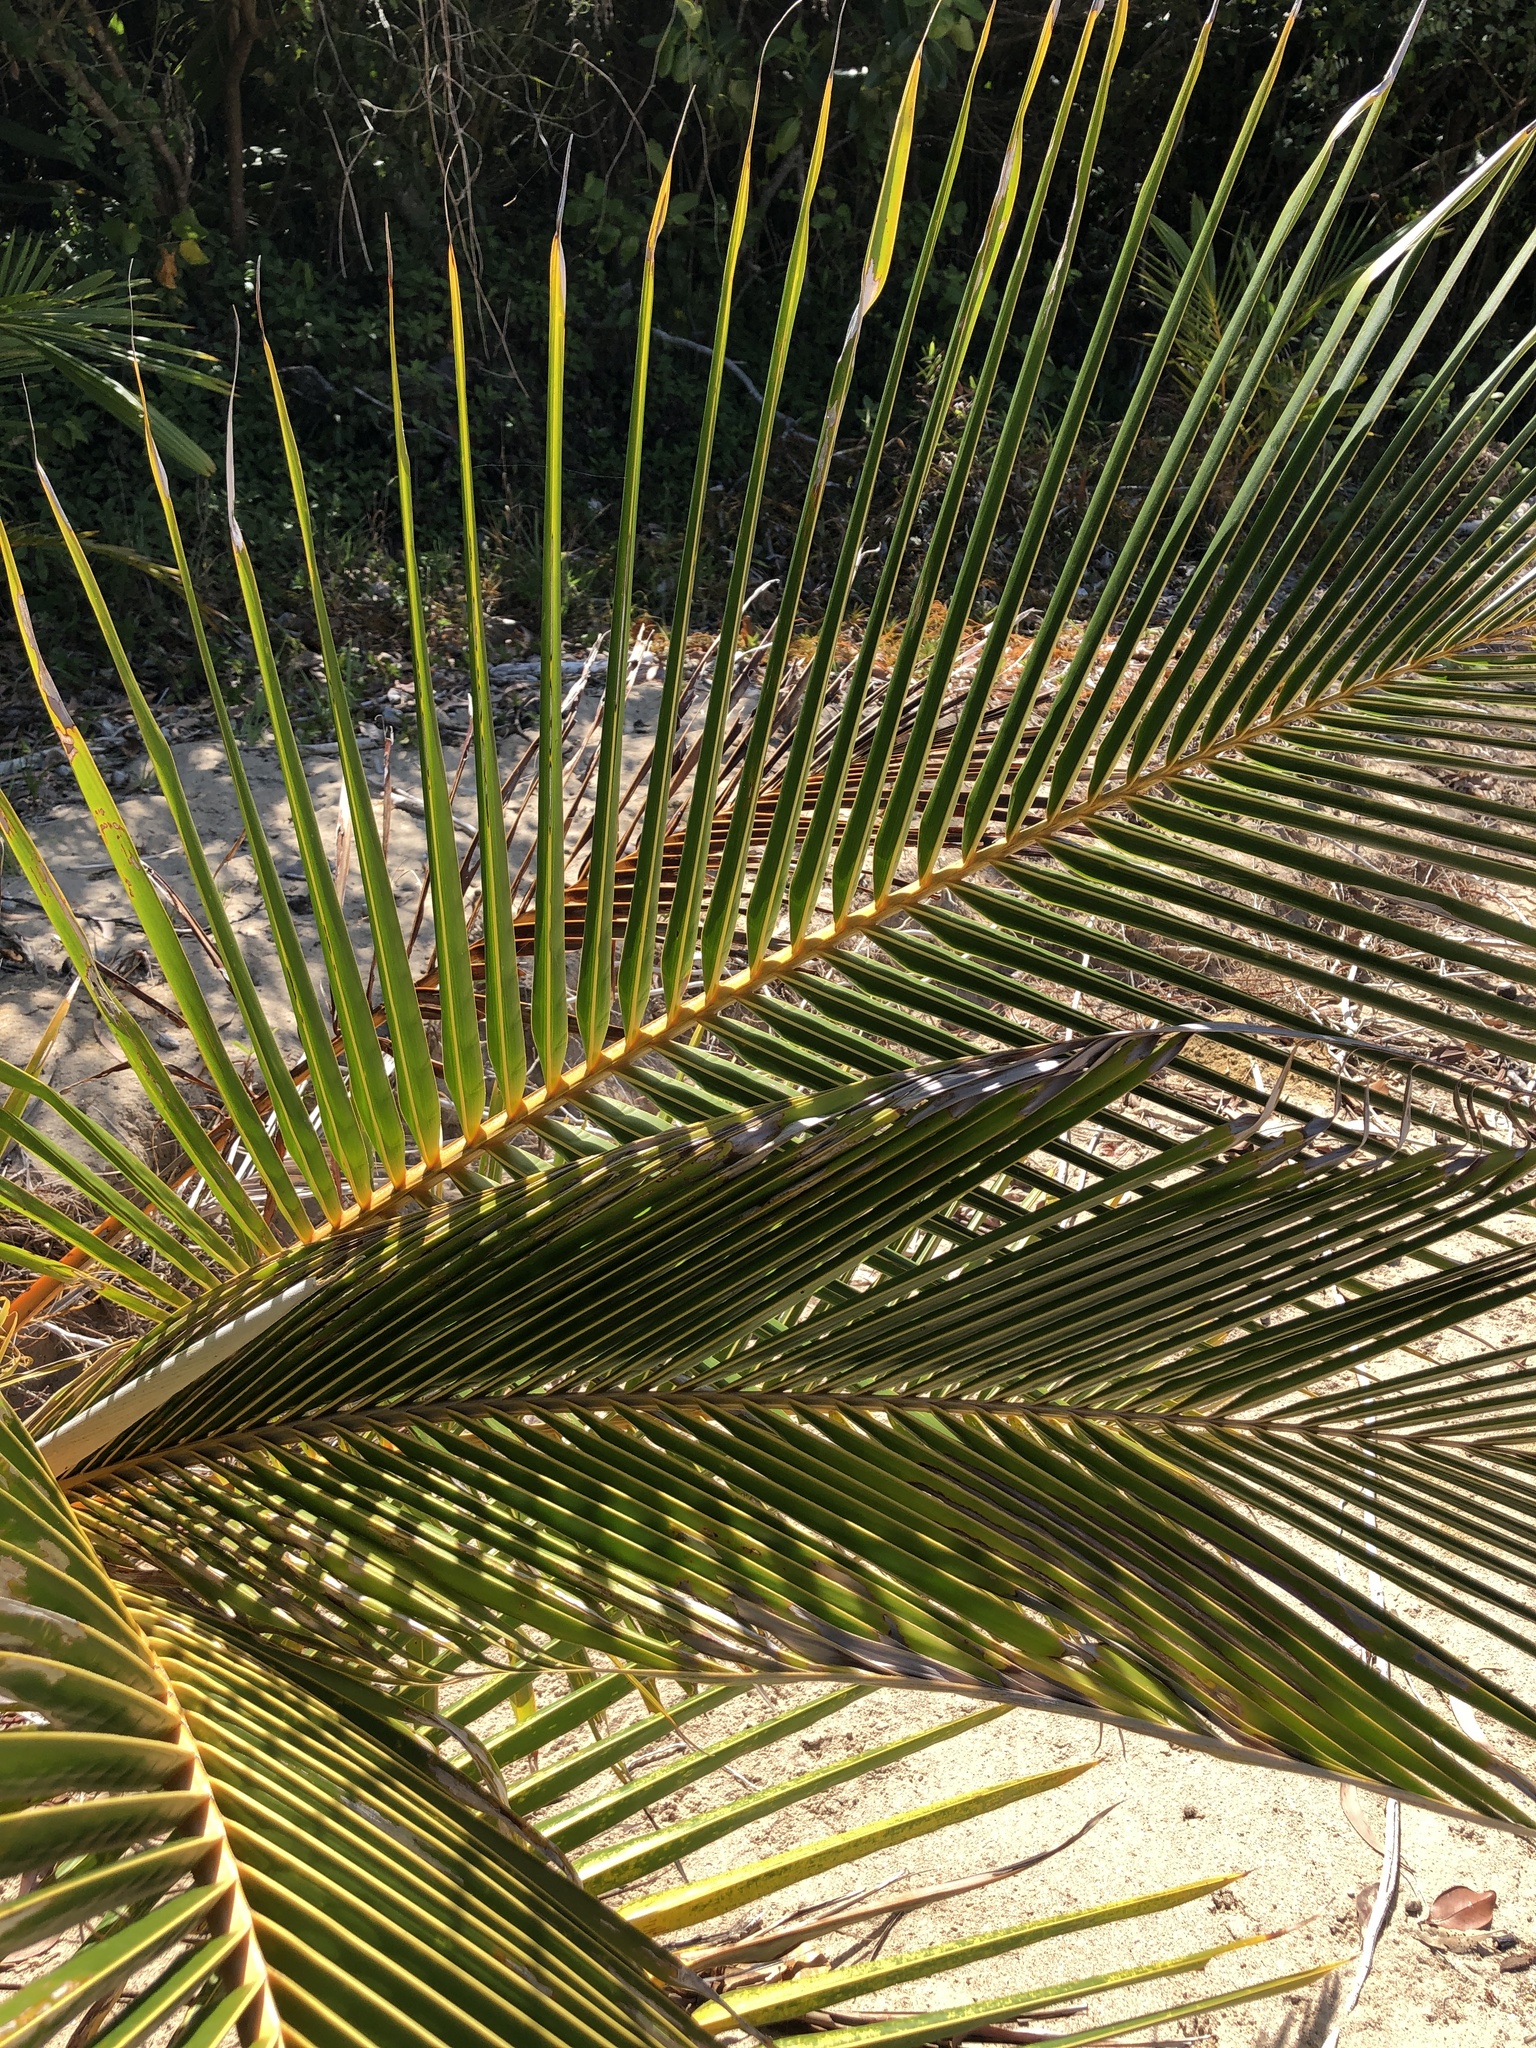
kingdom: Plantae
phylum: Tracheophyta
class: Liliopsida
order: Arecales
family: Arecaceae
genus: Cocos
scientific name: Cocos nucifera
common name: Coconut palm
